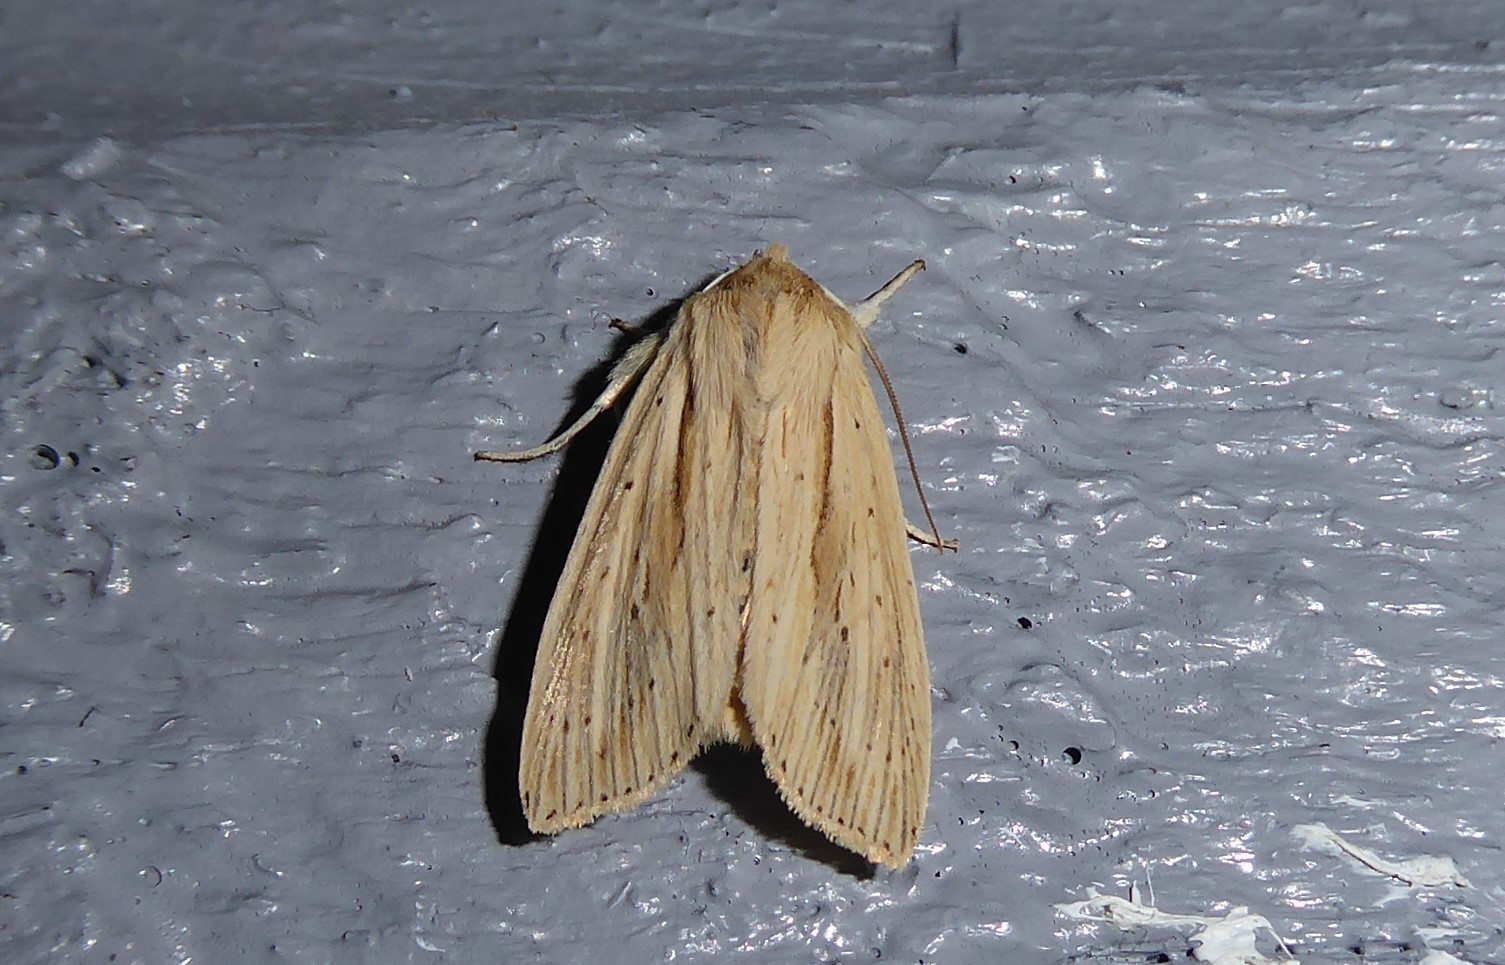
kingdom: Animalia
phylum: Arthropoda
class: Insecta
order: Lepidoptera
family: Noctuidae
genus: Ichneutica
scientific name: Ichneutica semivittata
